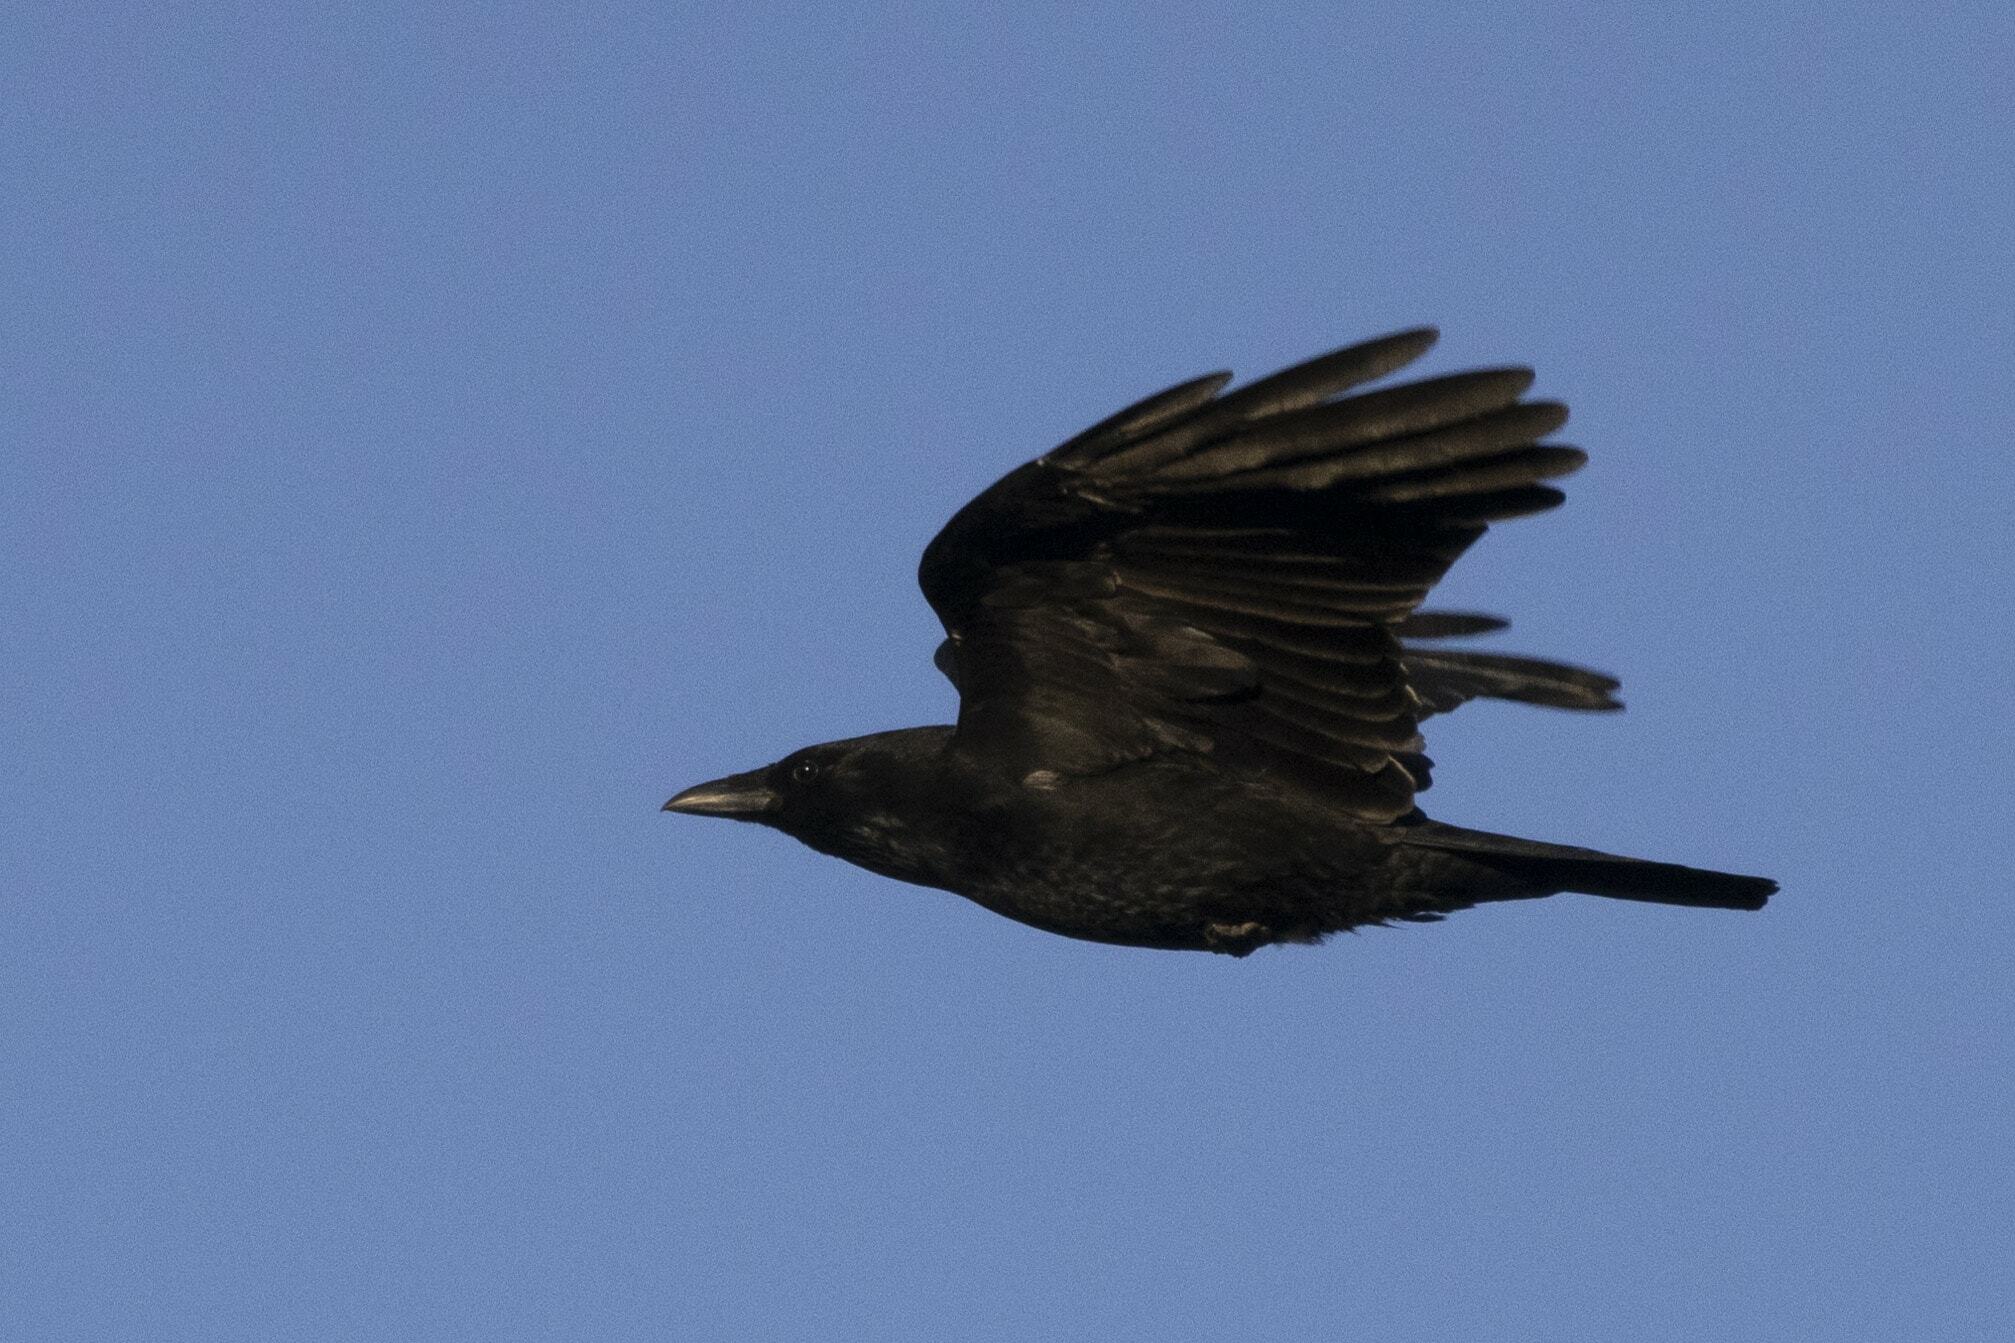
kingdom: Animalia
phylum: Chordata
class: Aves
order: Passeriformes
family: Corvidae
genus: Corvus
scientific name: Corvus corone
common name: Carrion crow
